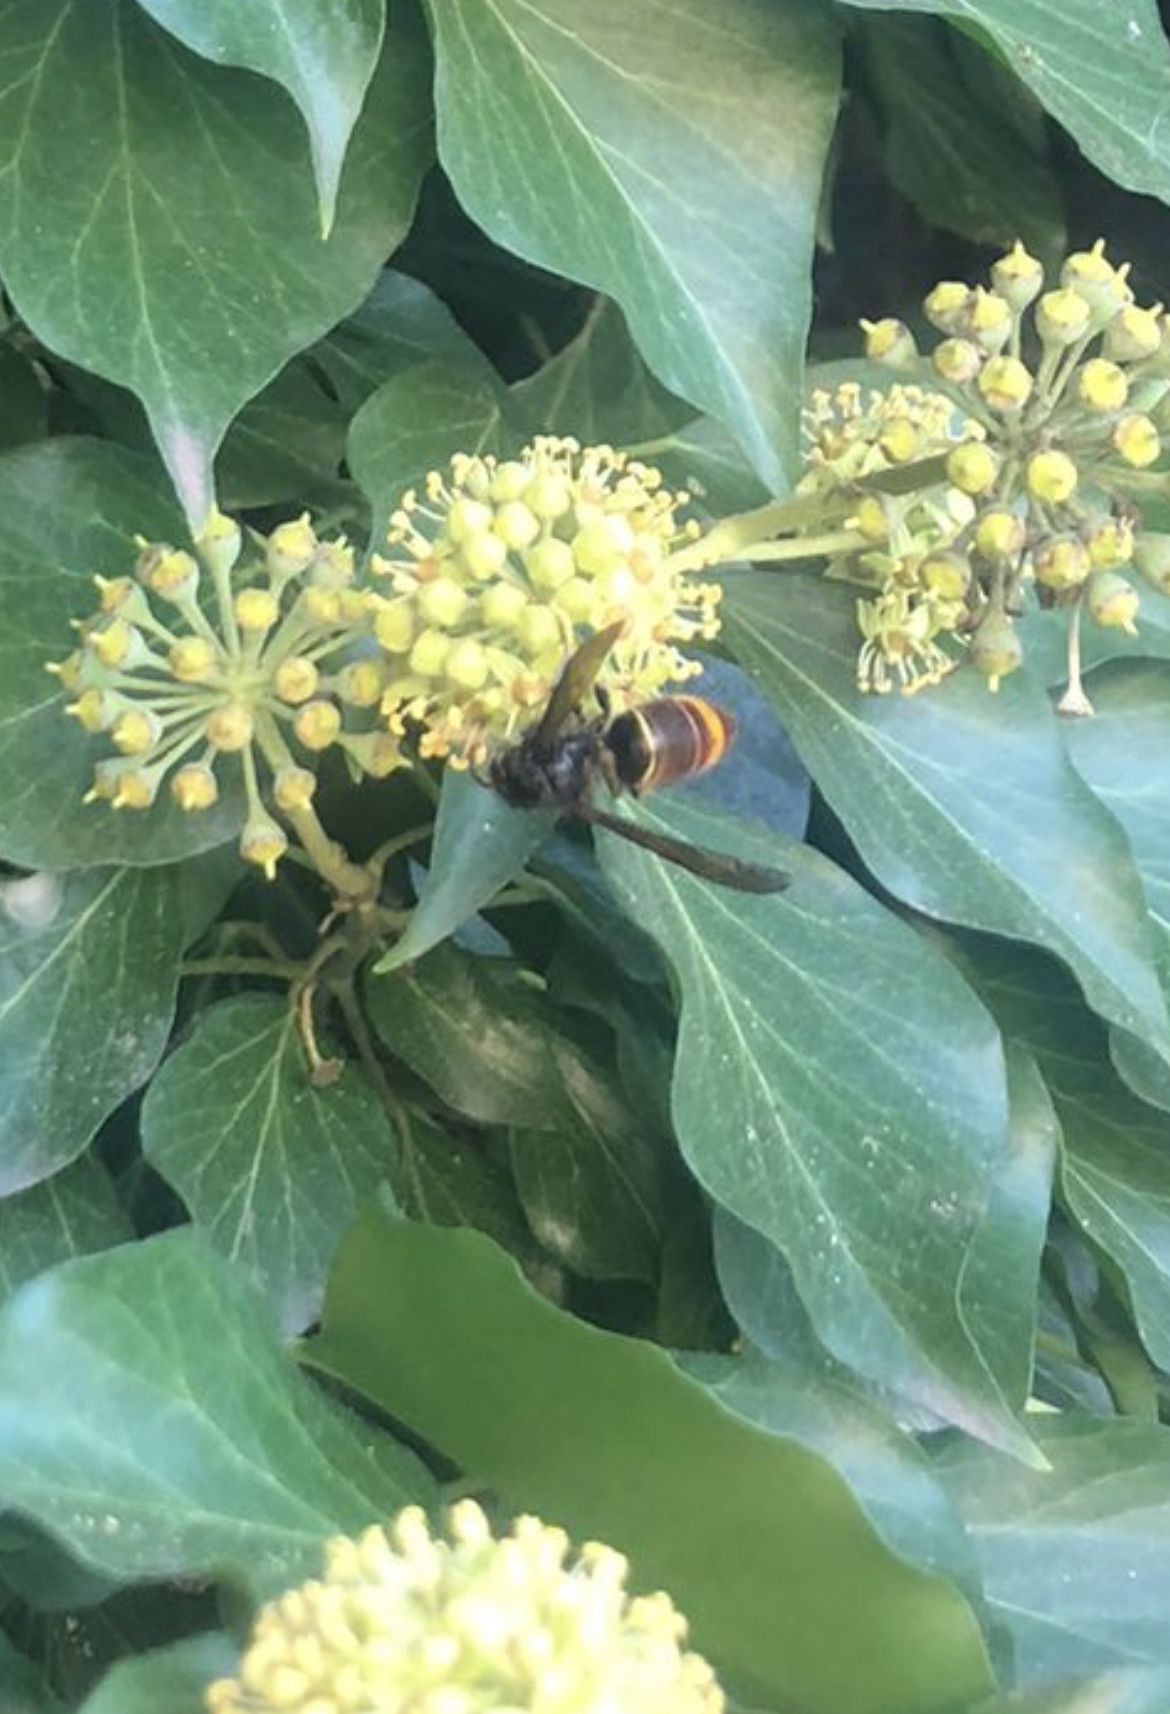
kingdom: Animalia
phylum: Arthropoda
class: Insecta
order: Hymenoptera
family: Vespidae
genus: Vespa
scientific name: Vespa velutina
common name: Asian hornet
